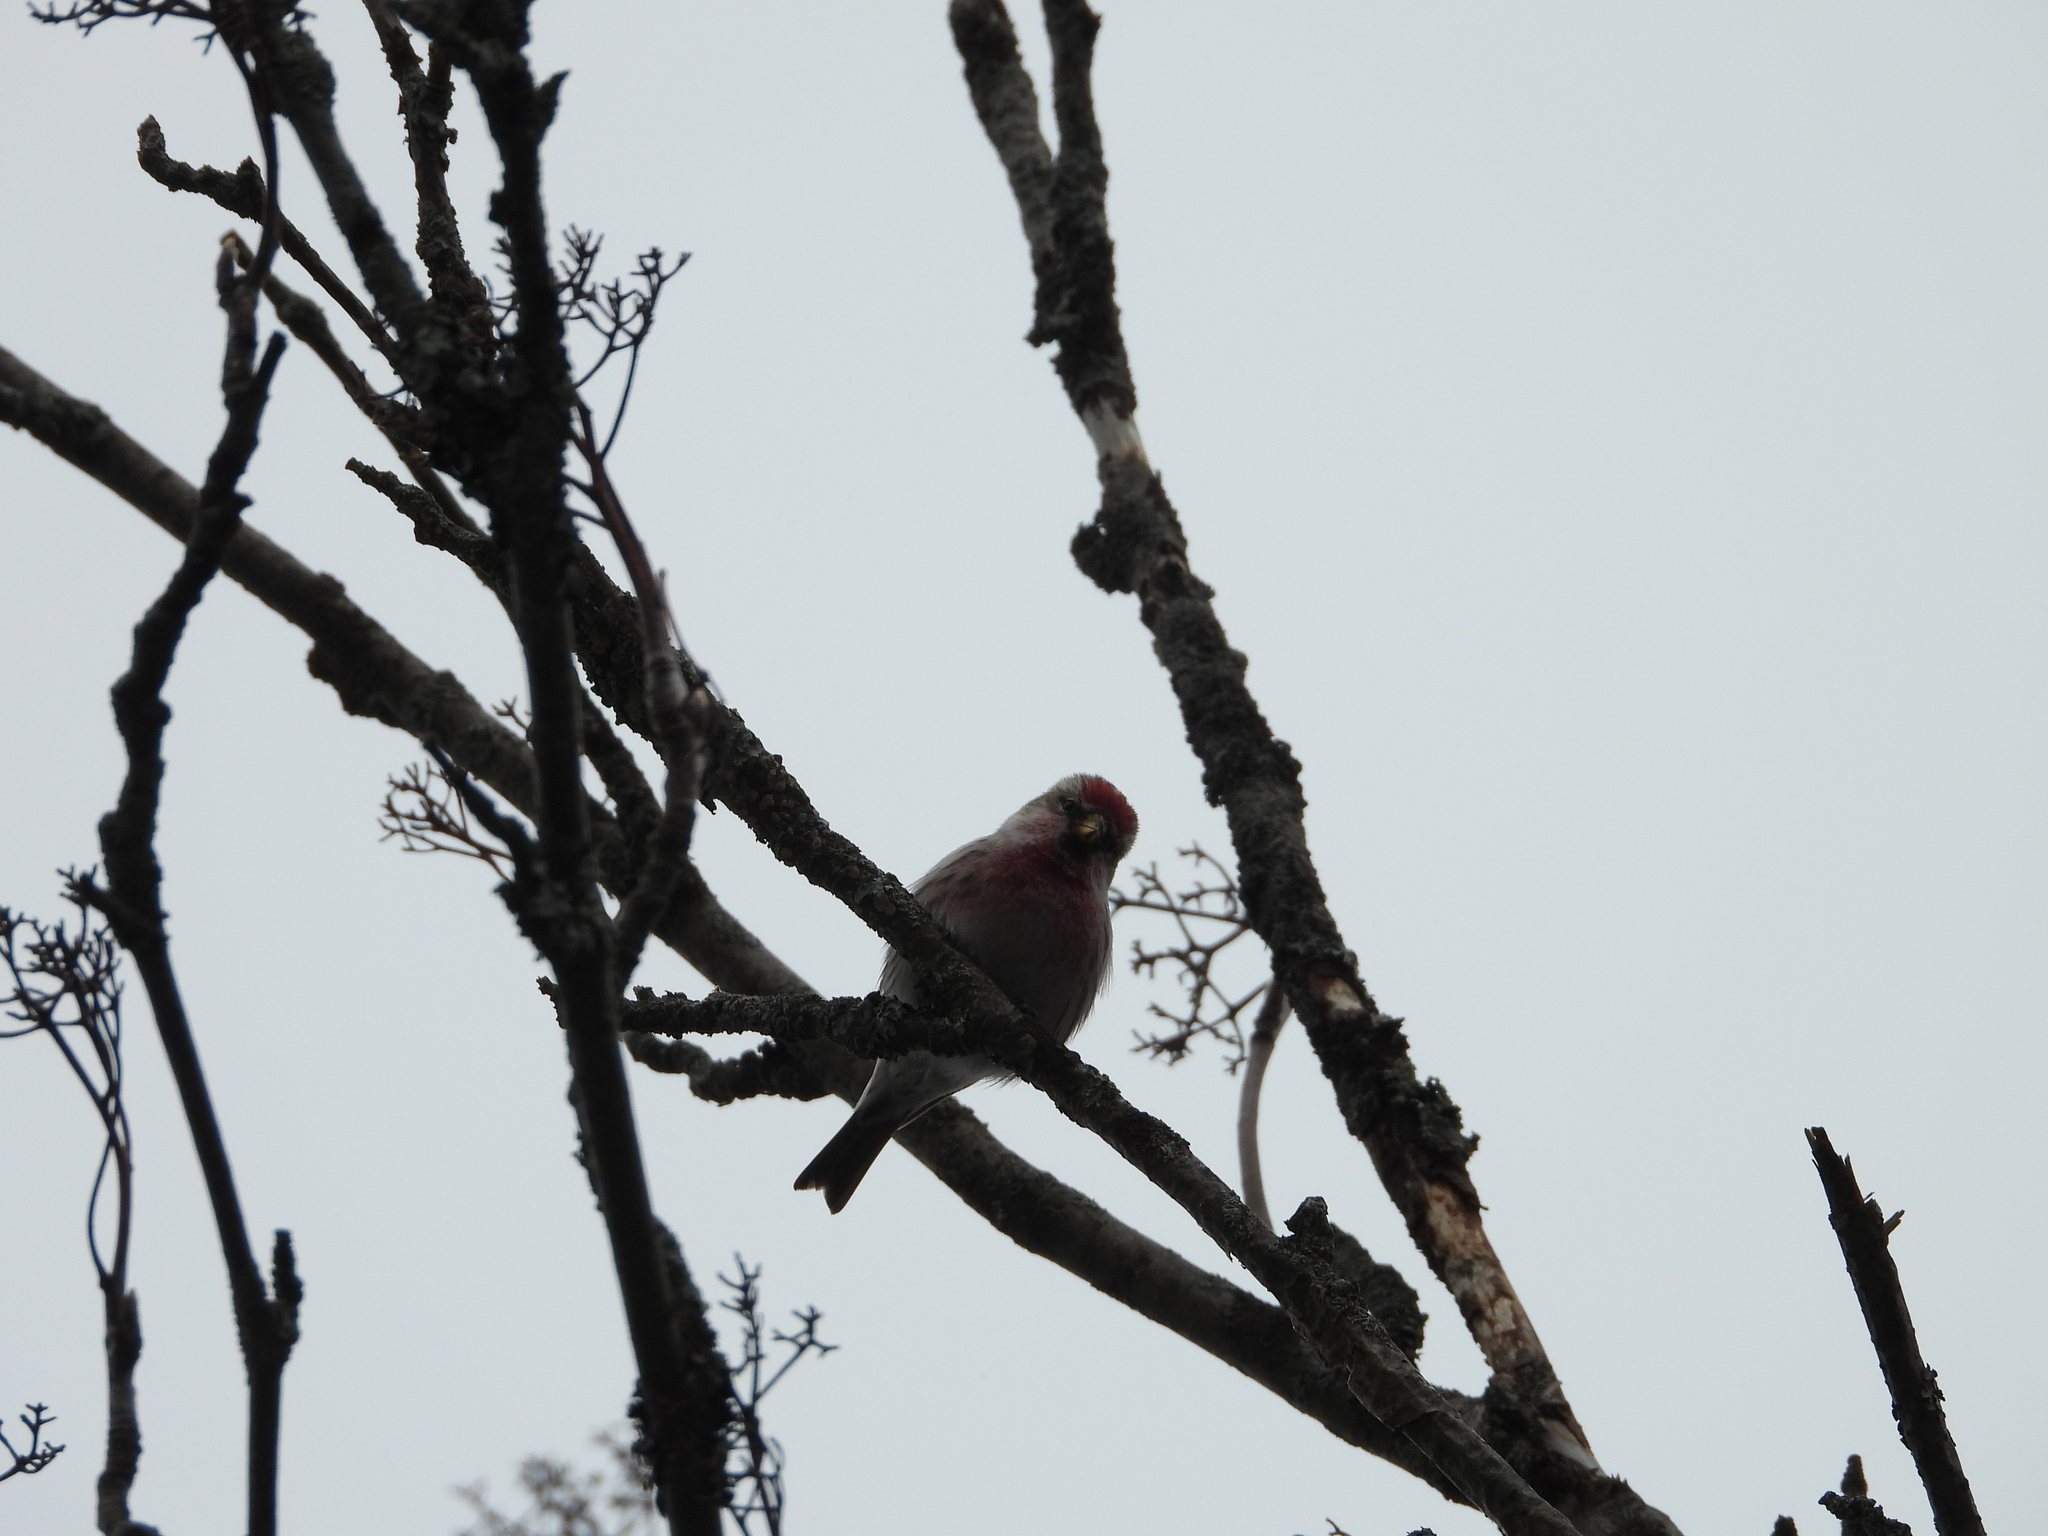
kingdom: Animalia
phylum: Chordata
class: Aves
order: Passeriformes
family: Fringillidae
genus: Acanthis
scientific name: Acanthis flammea
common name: Common redpoll
